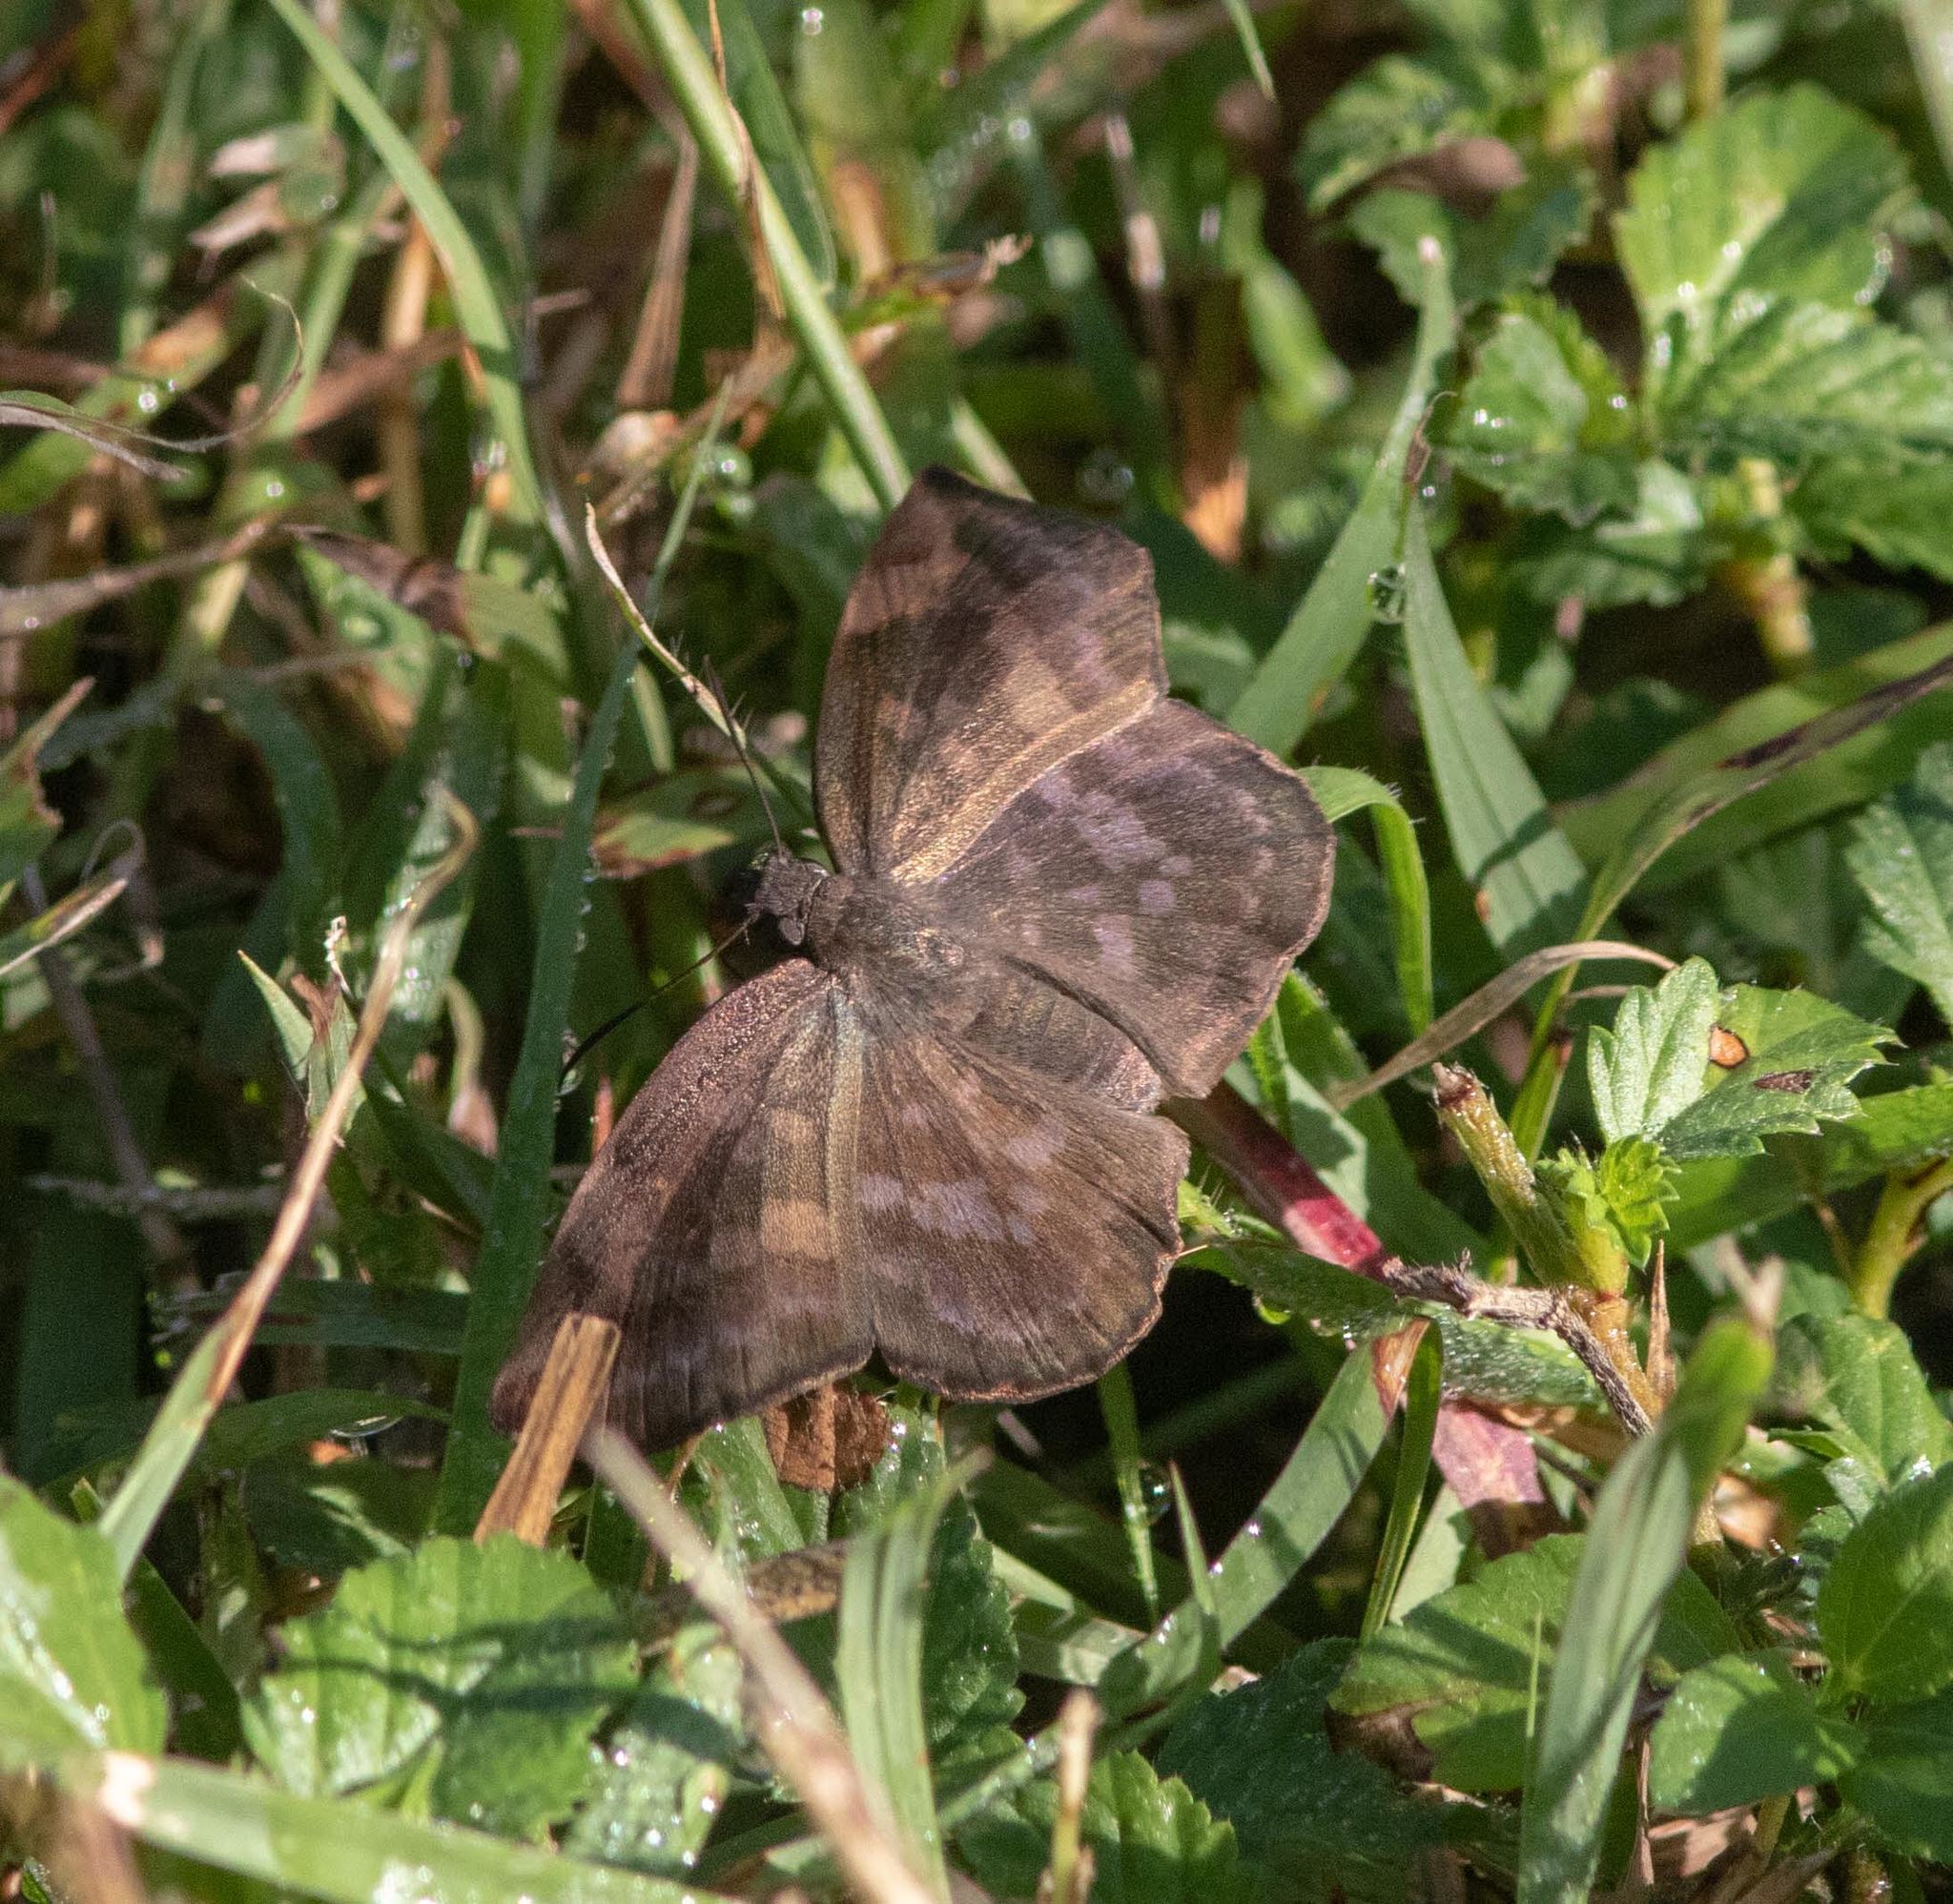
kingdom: Animalia
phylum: Arthropoda
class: Insecta
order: Lepidoptera
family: Hesperiidae
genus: Achlyodes
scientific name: Achlyodes thraso
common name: Sickle-winged skipper
